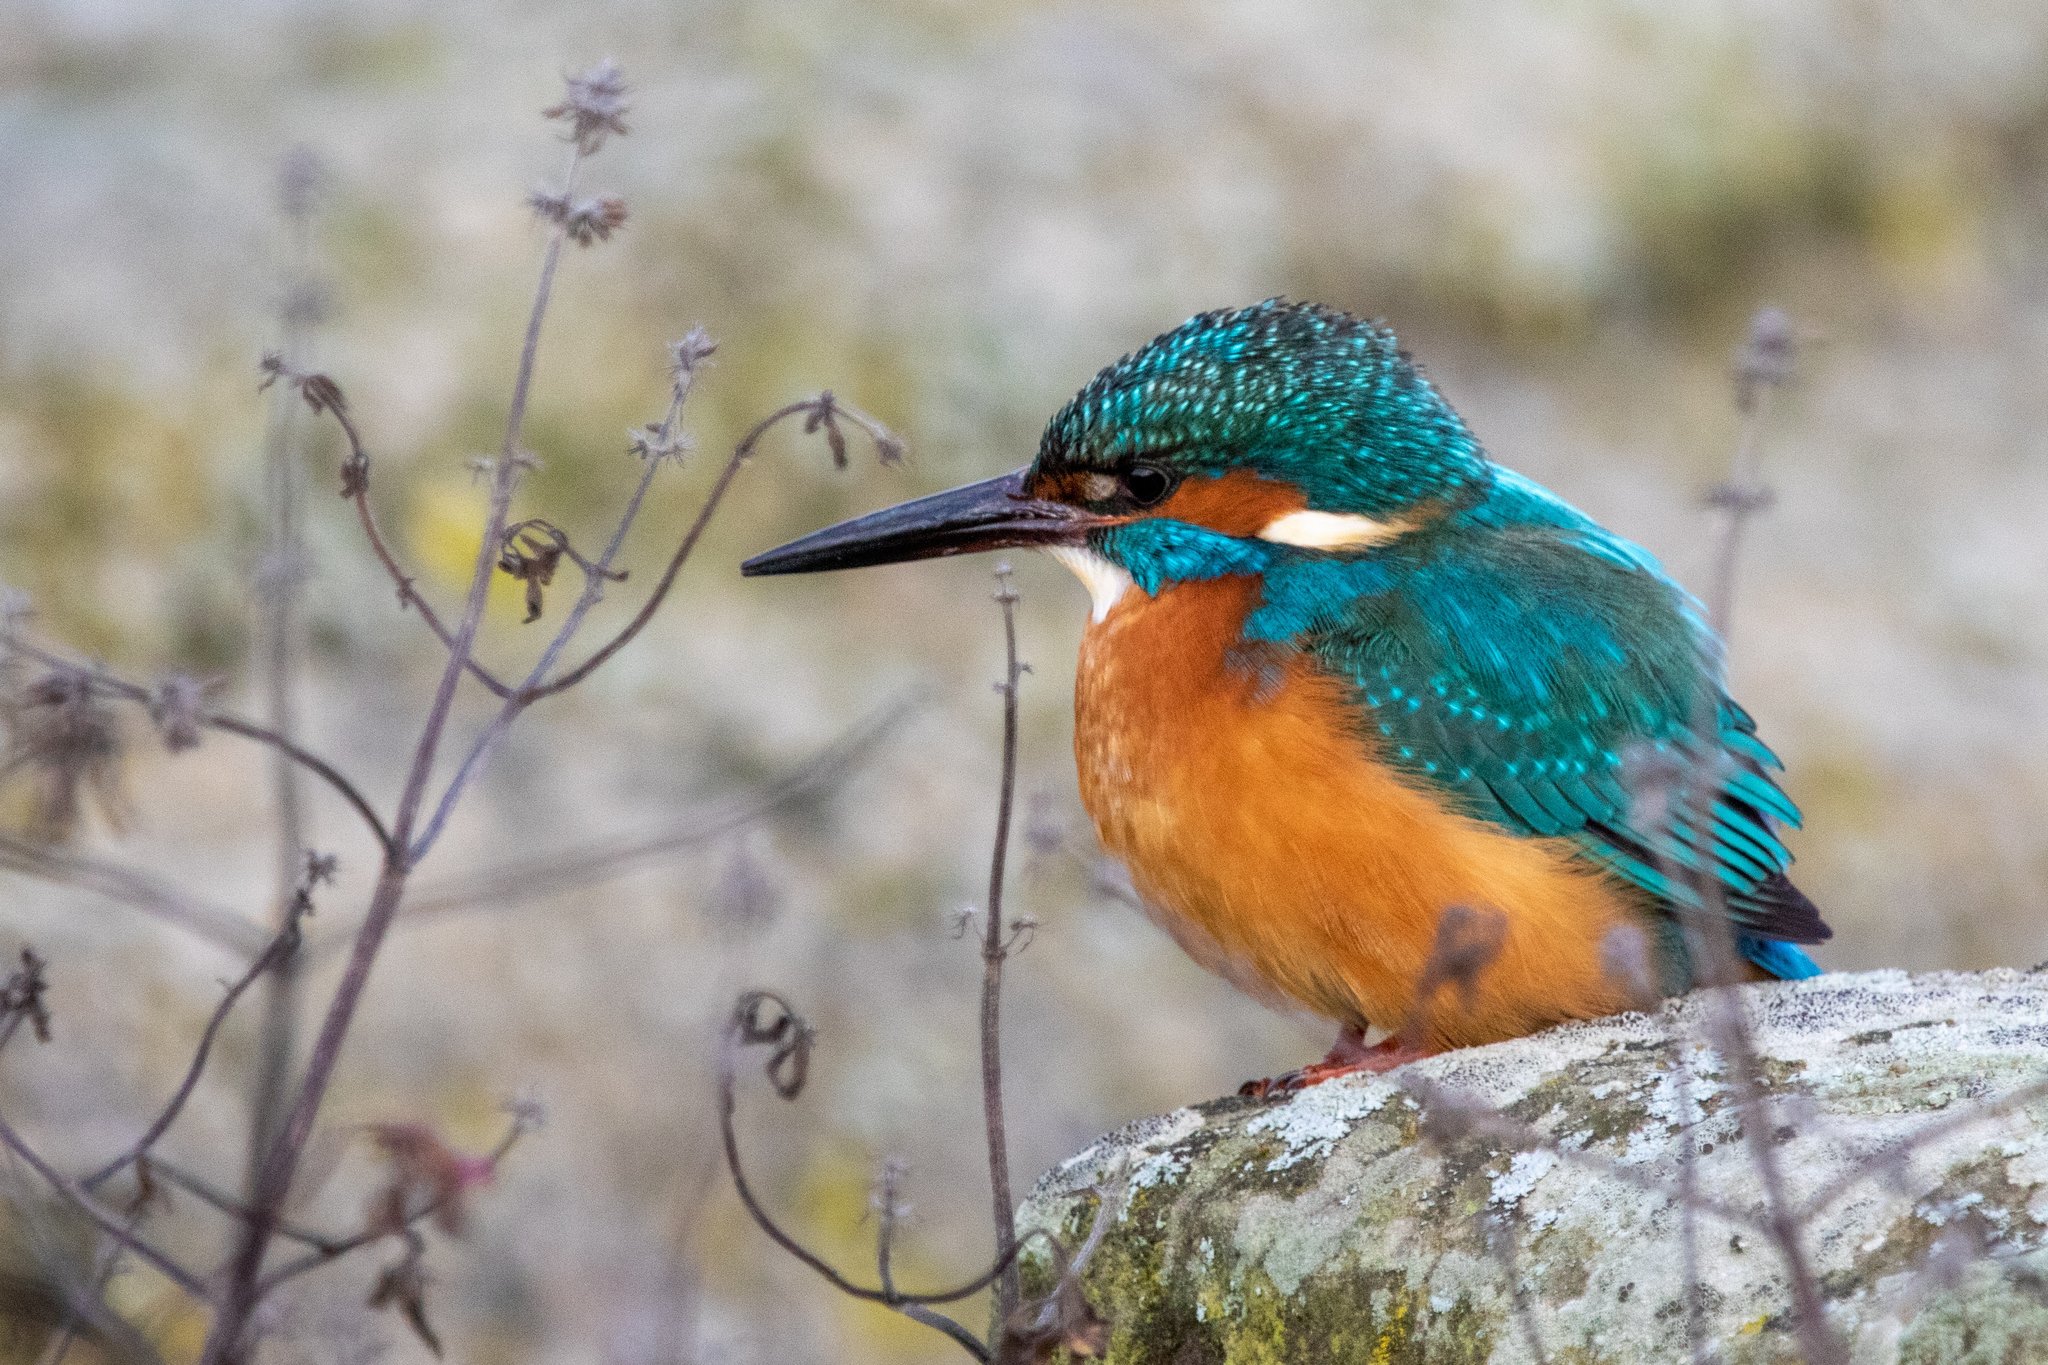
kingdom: Animalia
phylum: Chordata
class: Aves
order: Coraciiformes
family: Alcedinidae
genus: Alcedo
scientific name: Alcedo atthis
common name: Common kingfisher
